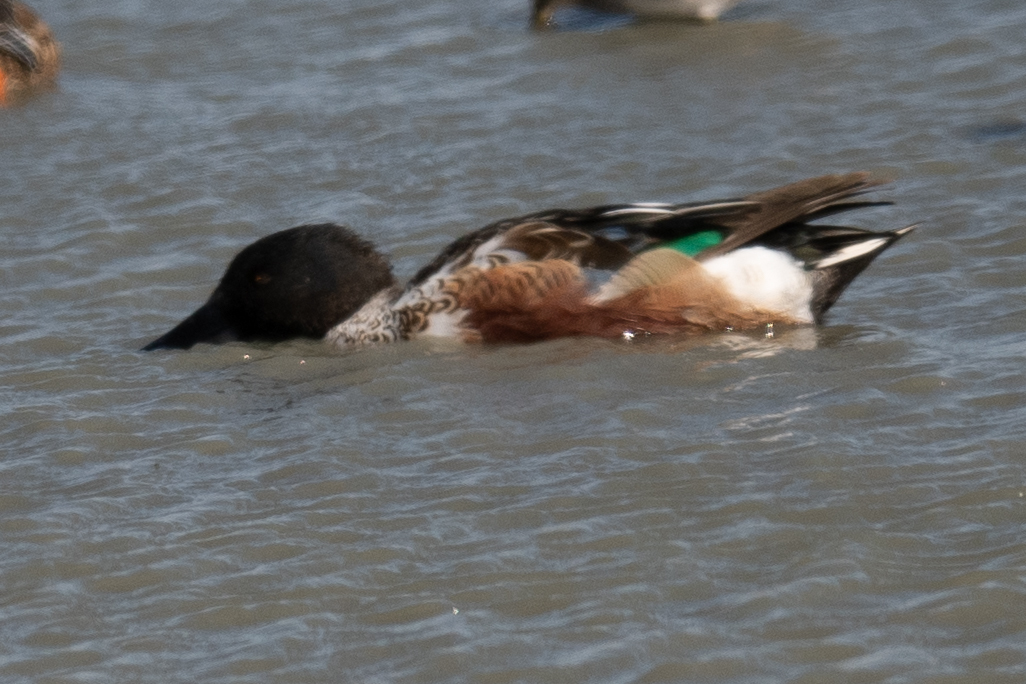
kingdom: Animalia
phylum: Chordata
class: Aves
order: Anseriformes
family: Anatidae
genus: Spatula
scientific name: Spatula clypeata
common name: Northern shoveler
